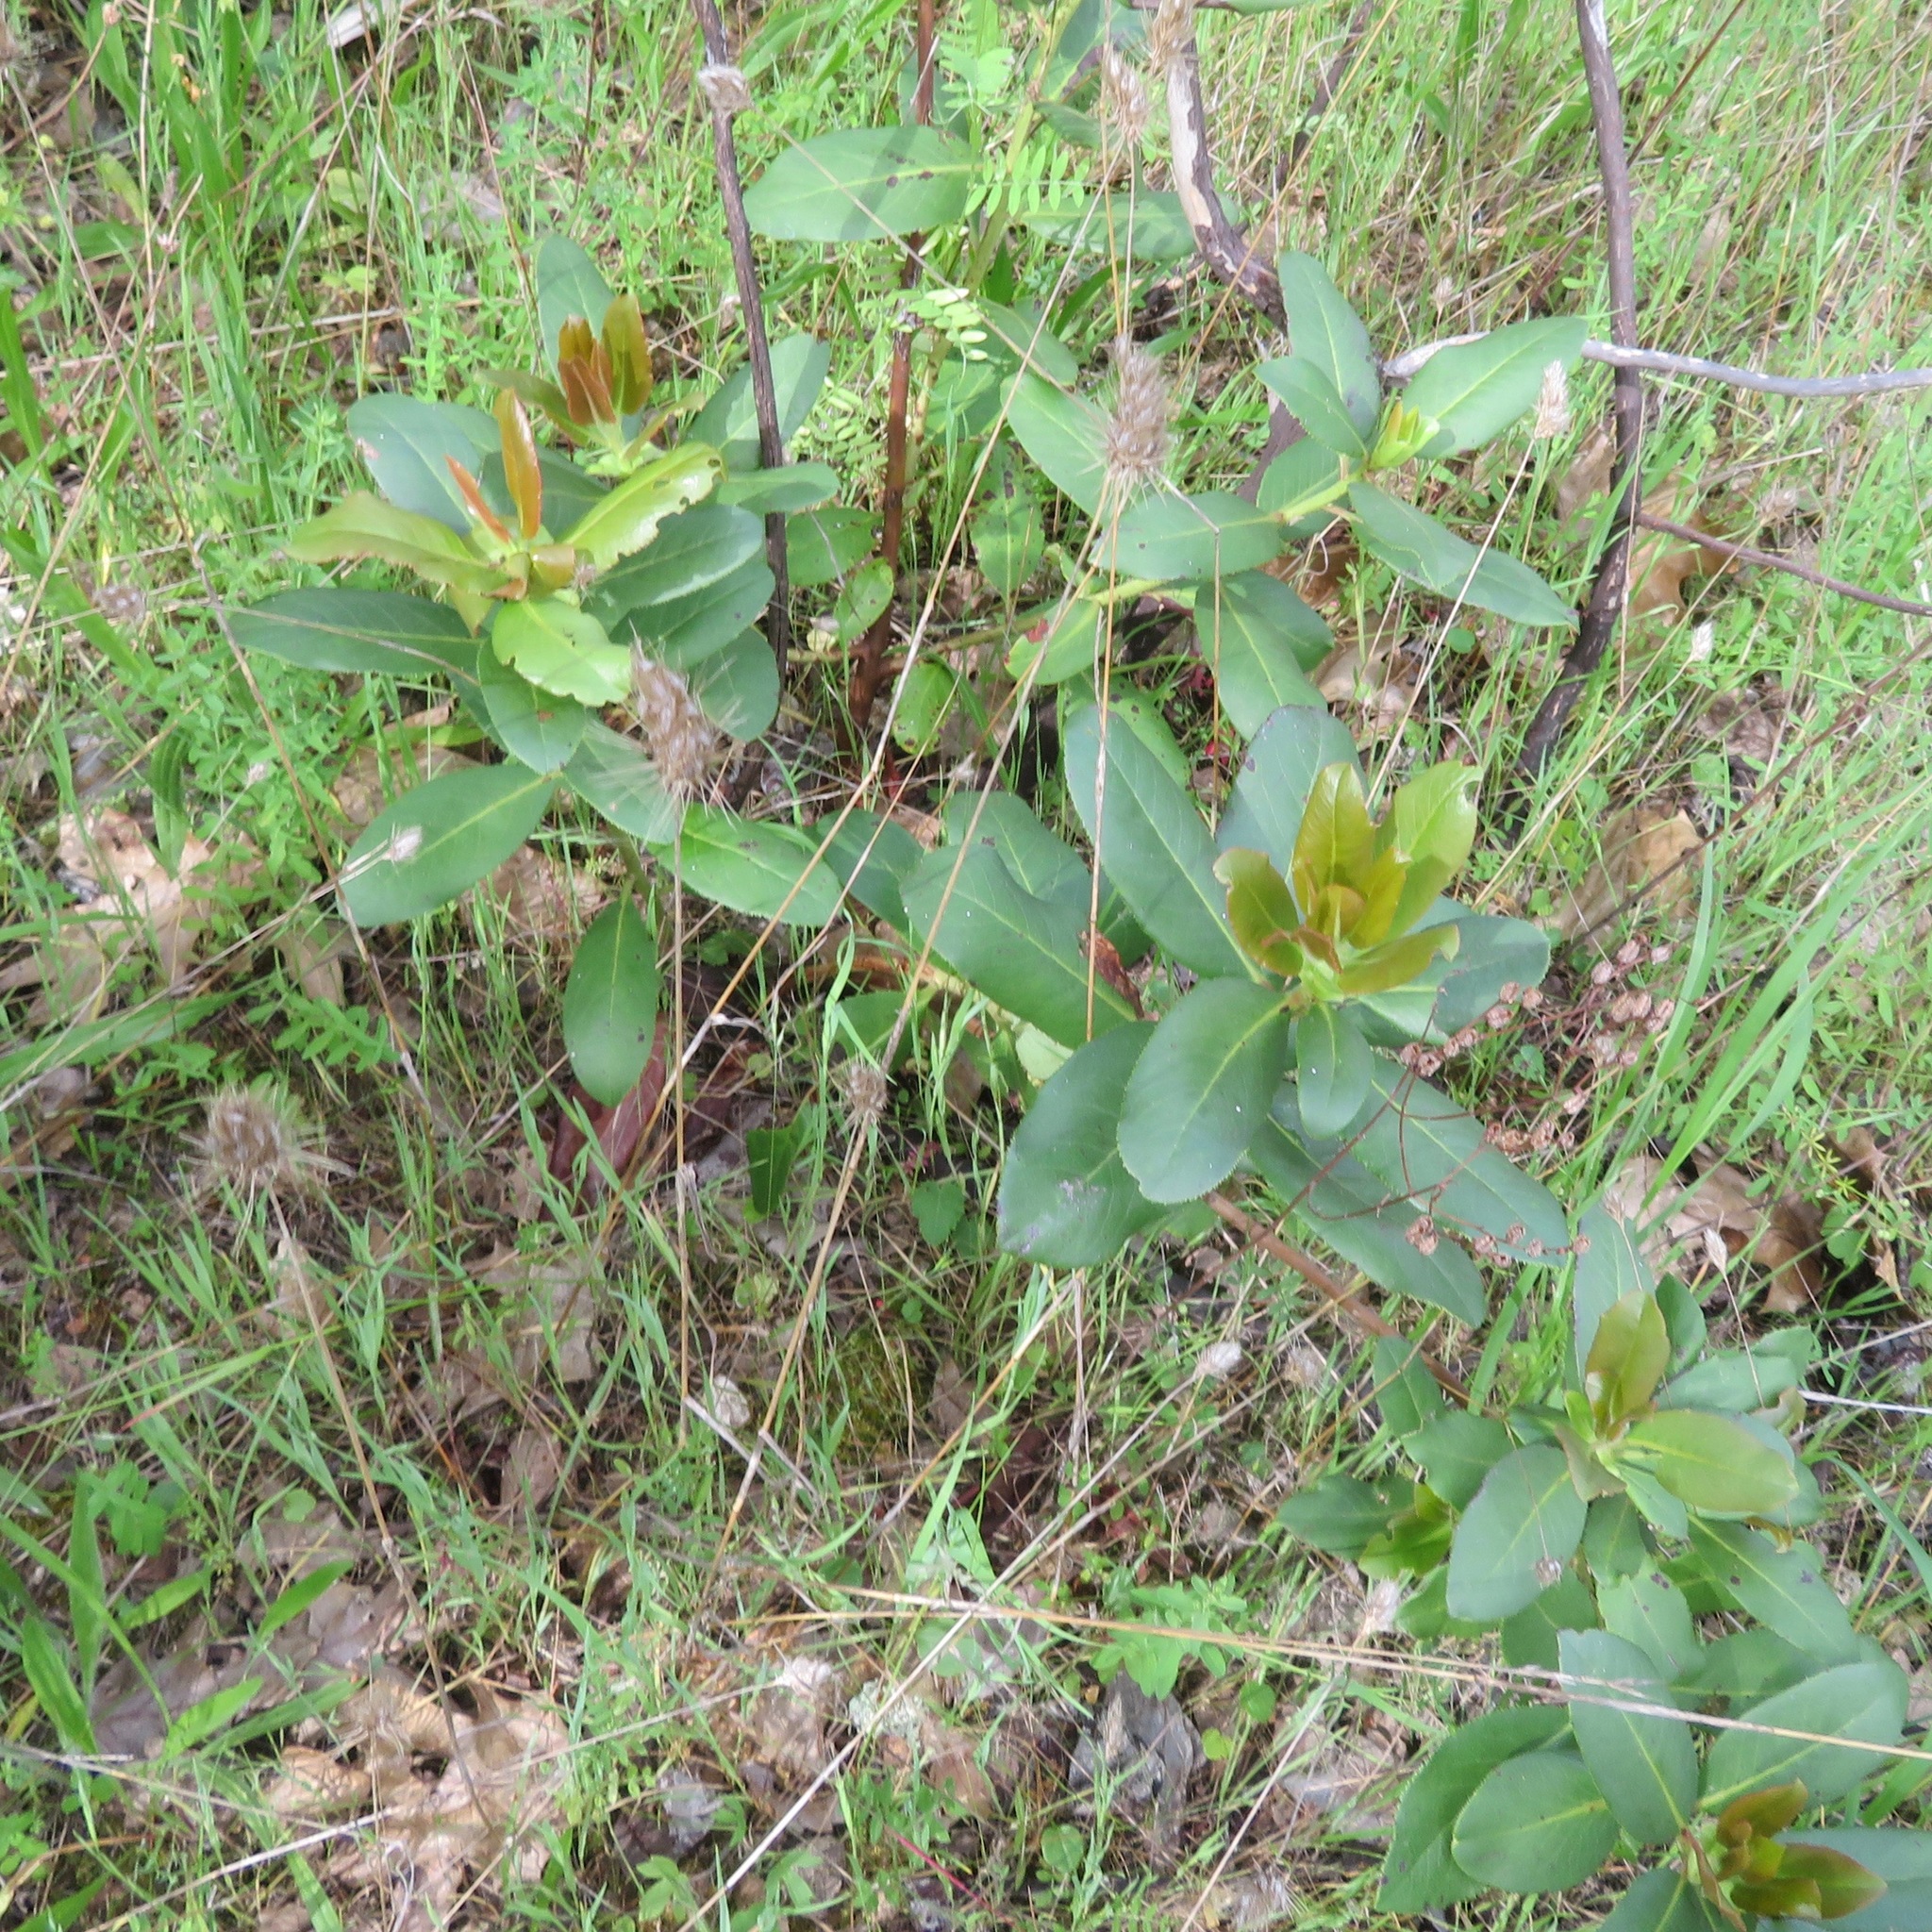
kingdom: Plantae
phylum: Tracheophyta
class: Magnoliopsida
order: Rosales
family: Rosaceae
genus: Heteromeles
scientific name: Heteromeles arbutifolia
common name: California-holly
